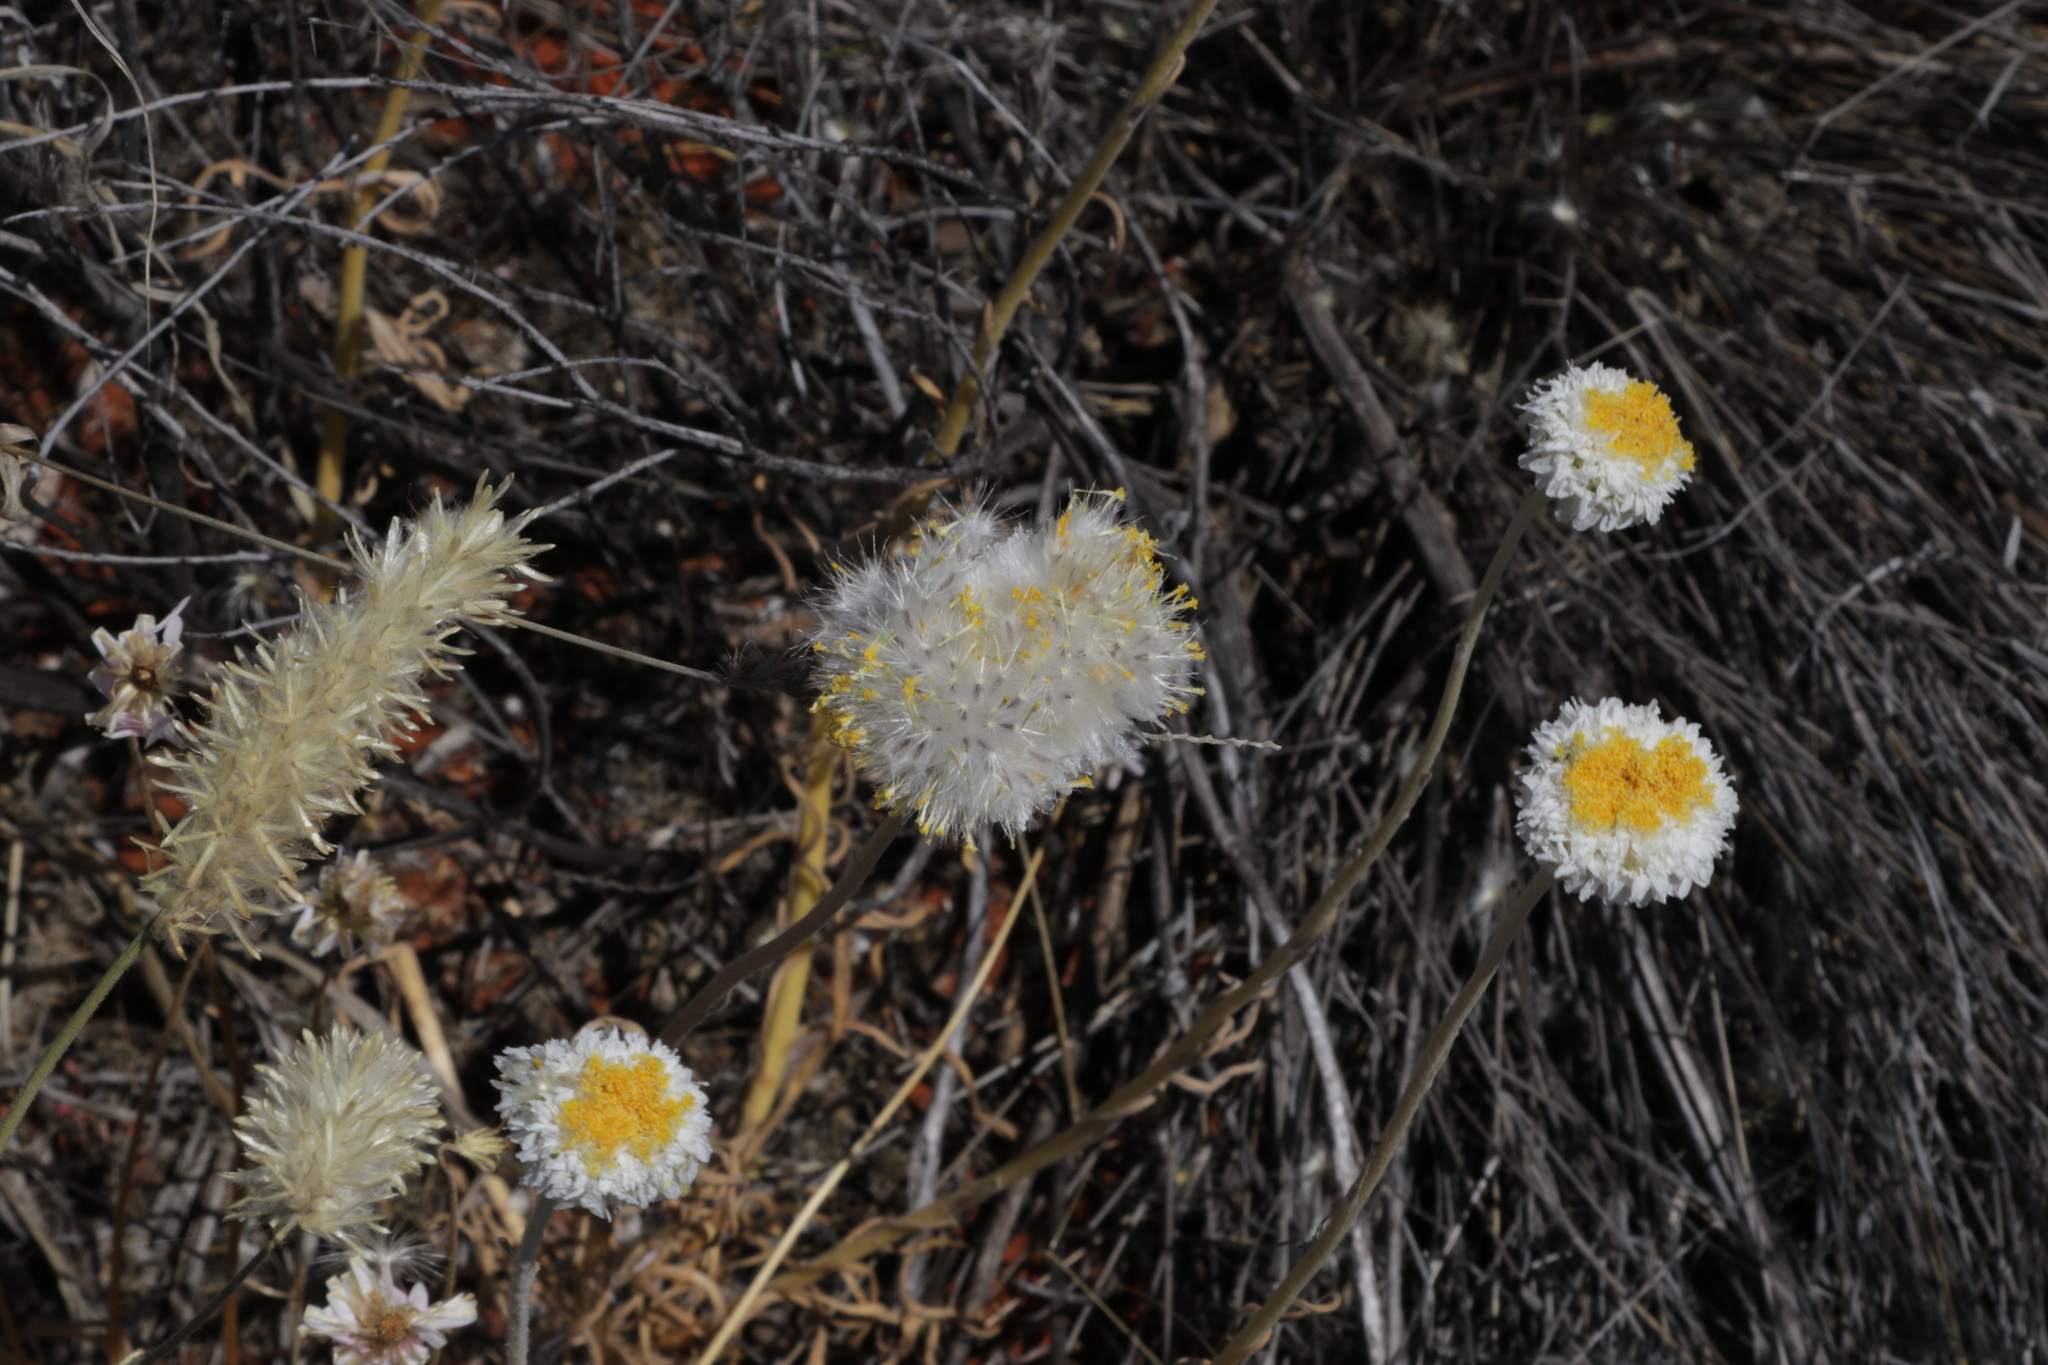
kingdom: Plantae
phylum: Tracheophyta
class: Magnoliopsida
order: Asterales
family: Asteraceae
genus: Polycalymma
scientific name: Polycalymma stuartii
